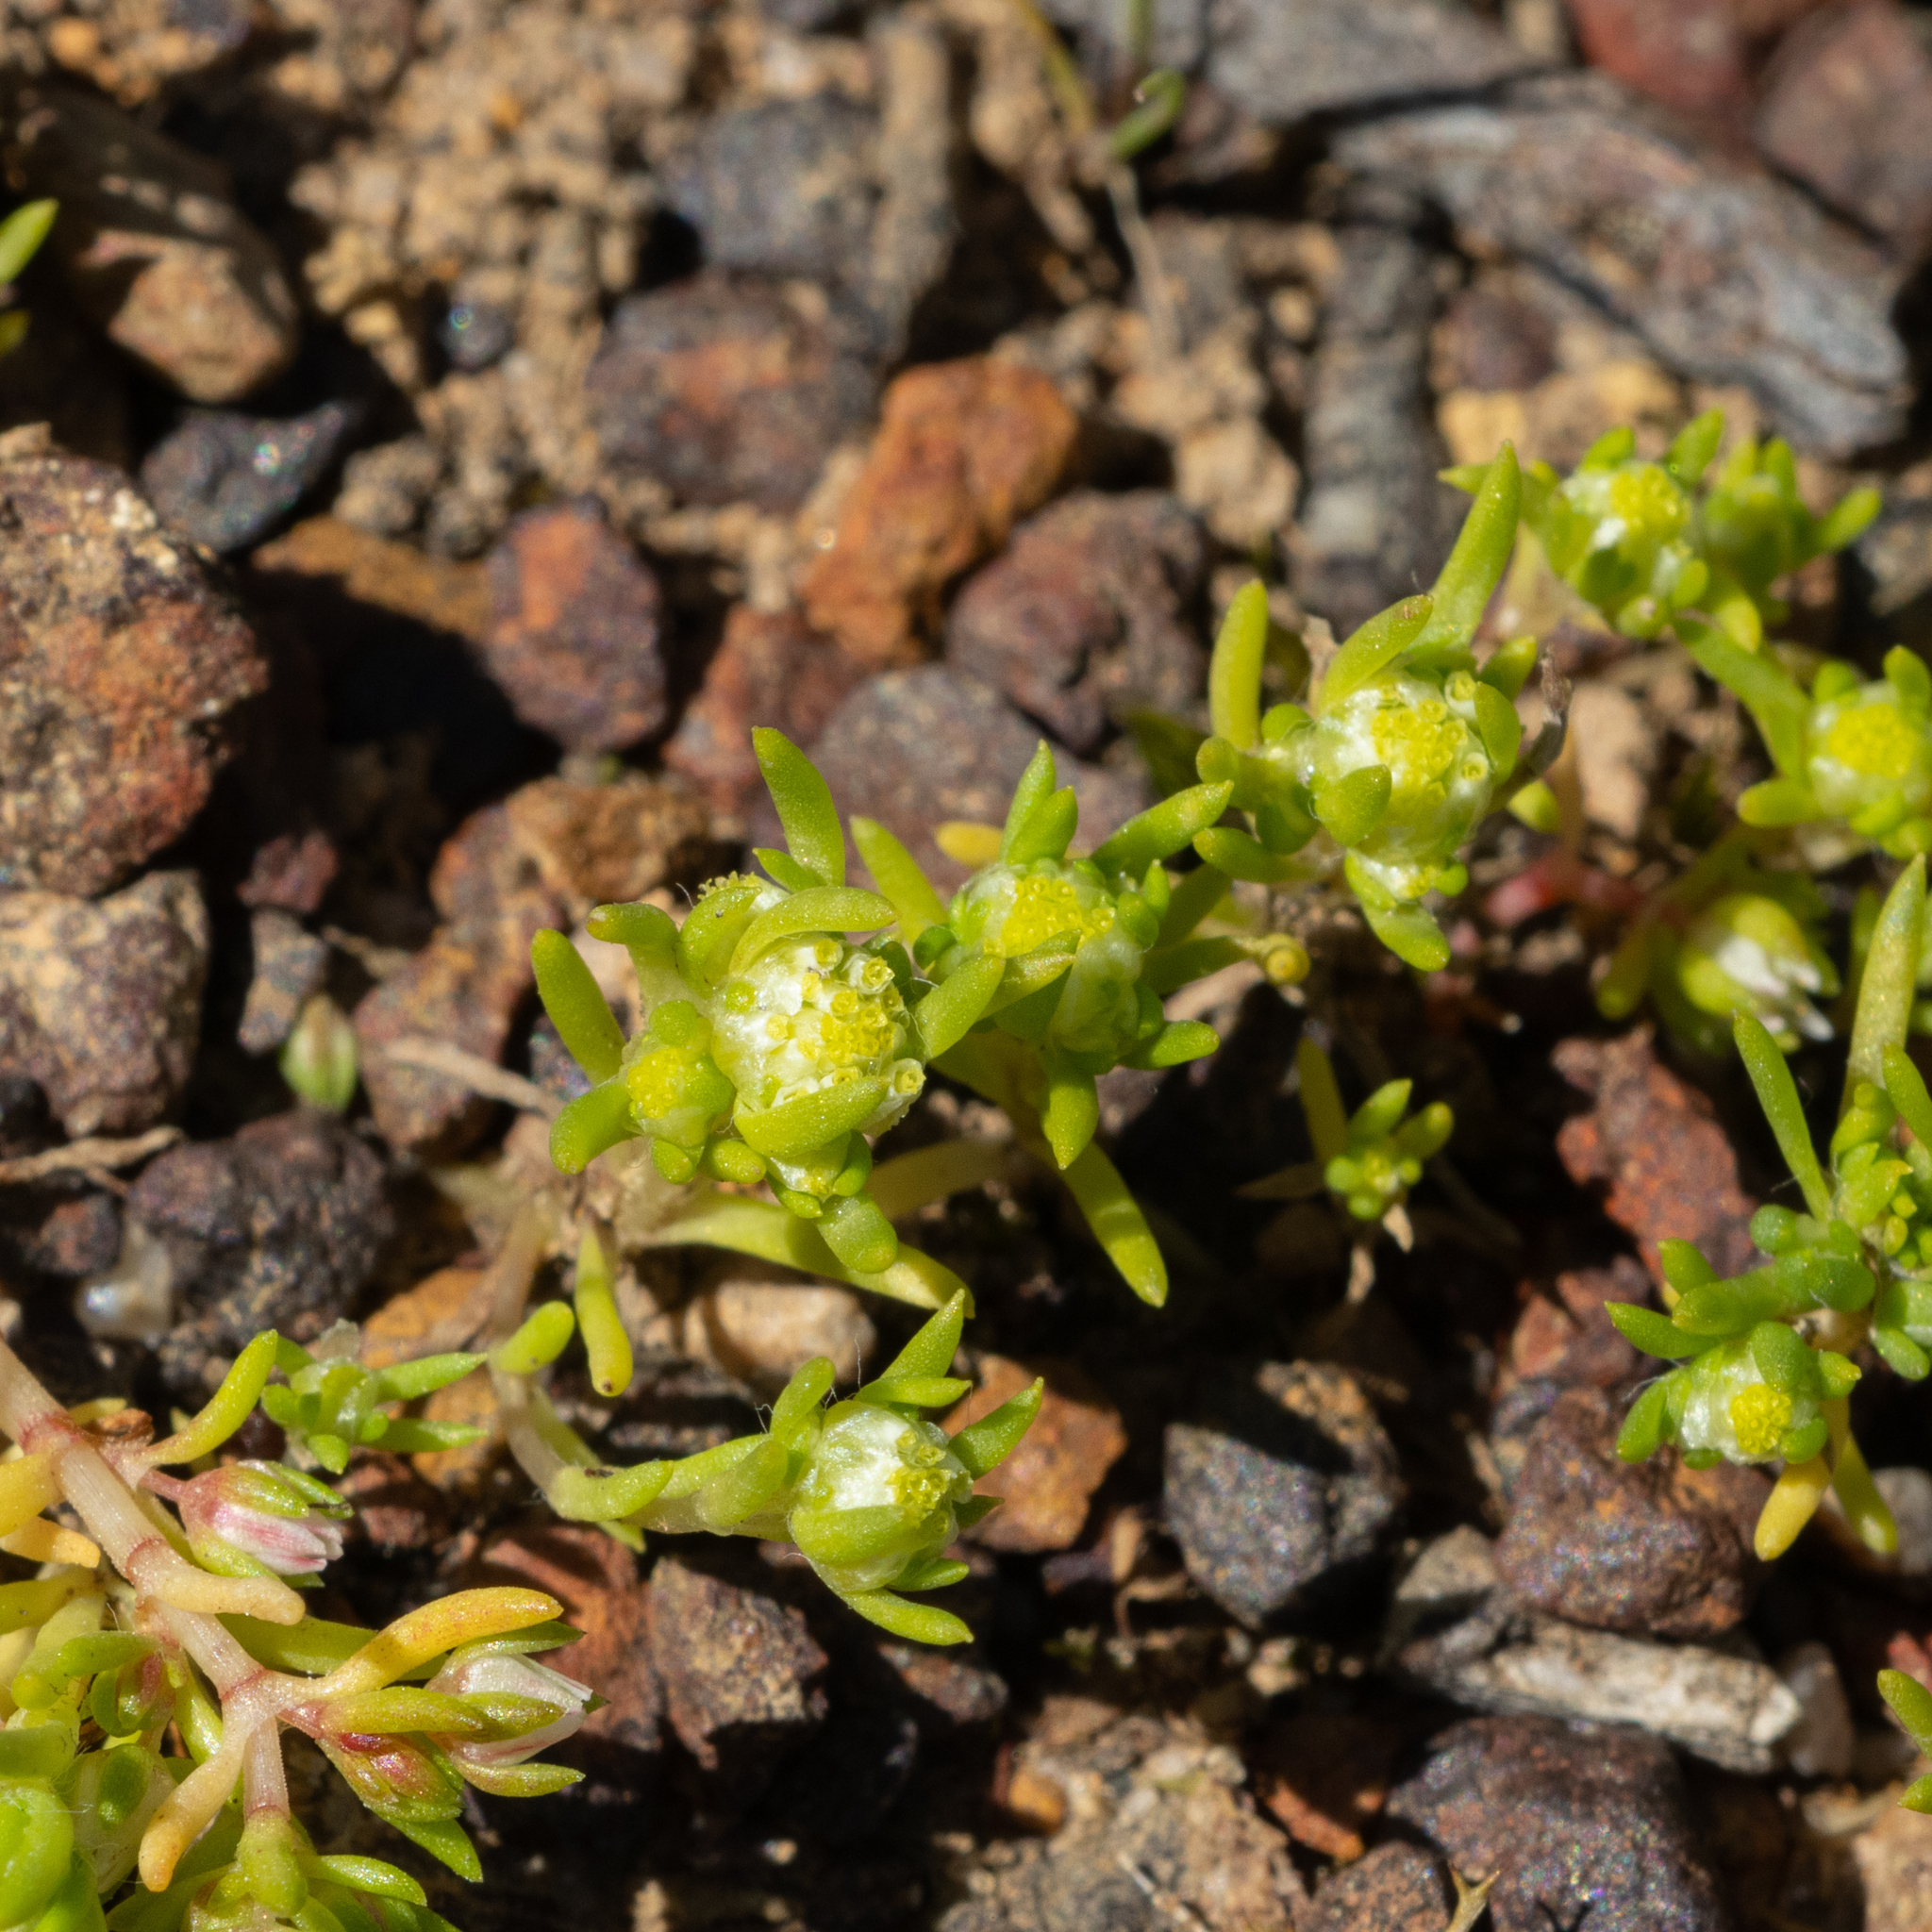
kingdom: Plantae
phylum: Tracheophyta
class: Magnoliopsida
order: Asterales
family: Asteraceae
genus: Siloxerus
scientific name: Siloxerus multiflorus
